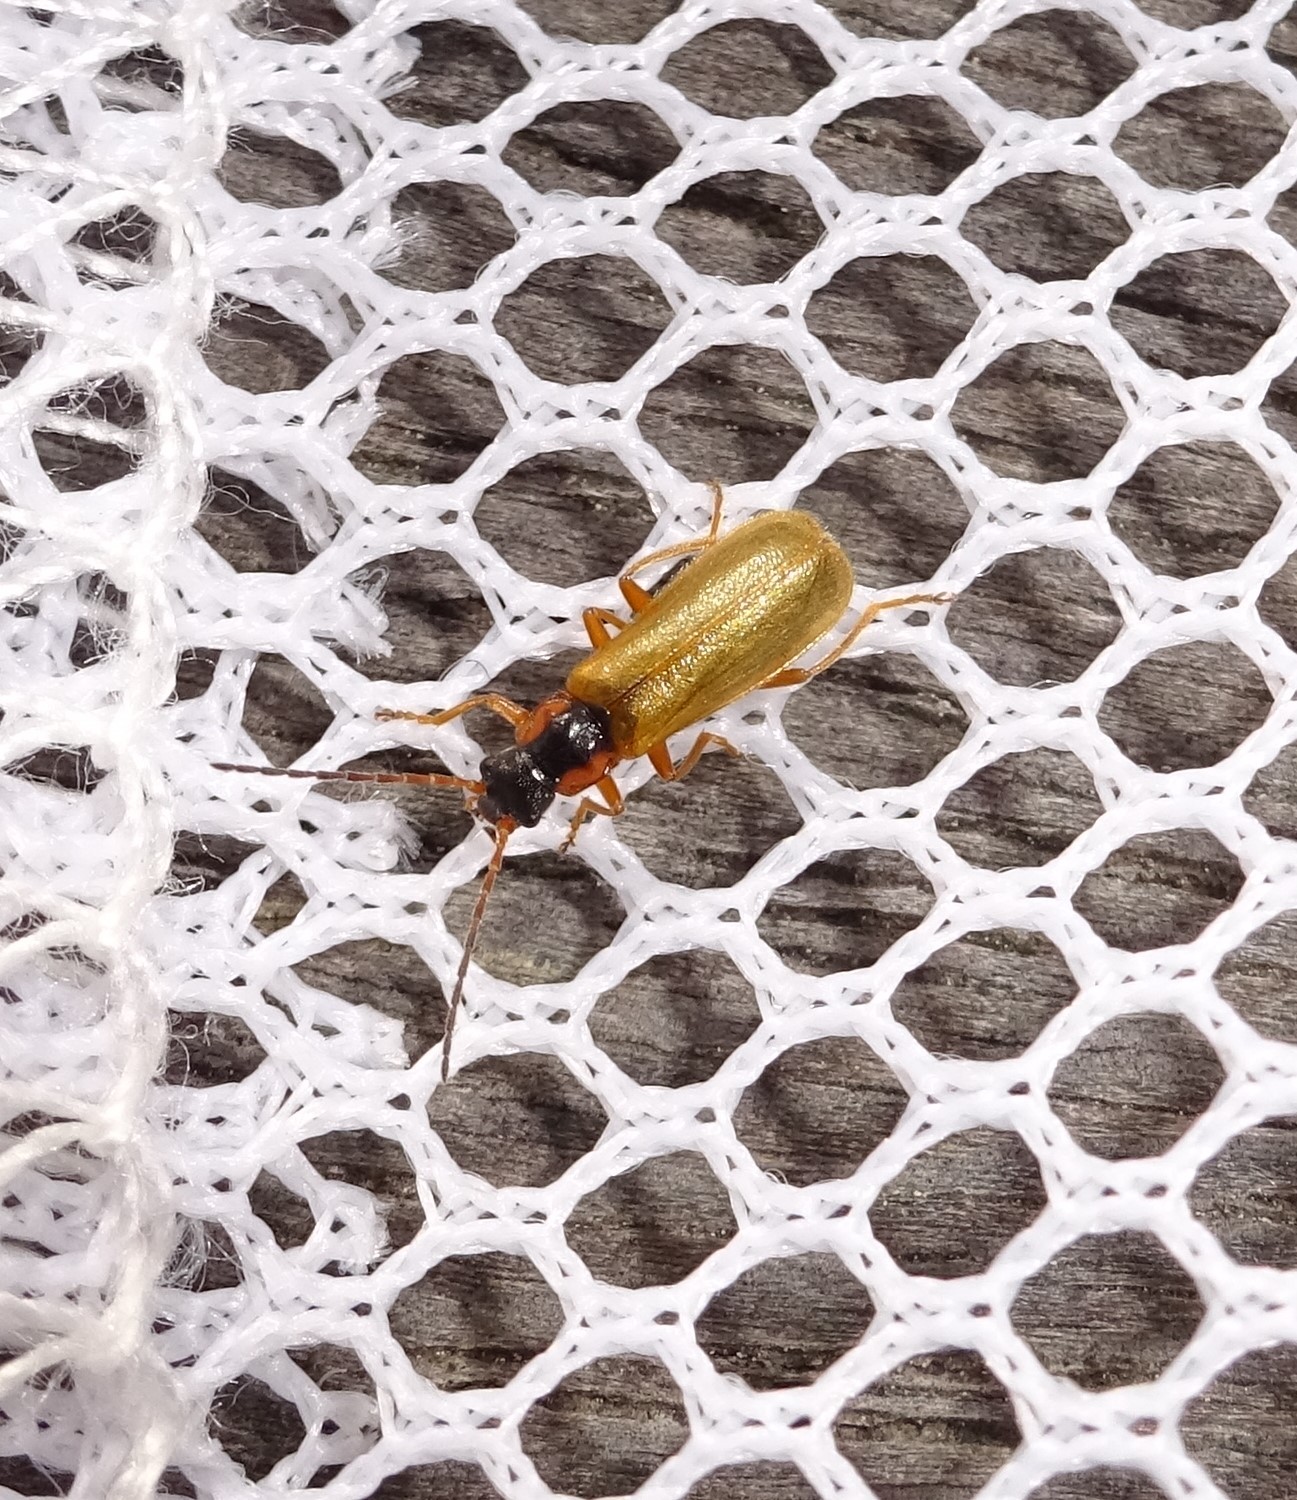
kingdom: Animalia
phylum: Arthropoda
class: Insecta
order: Coleoptera
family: Cantharidae
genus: Rhagonycha
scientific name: Rhagonycha testacea
